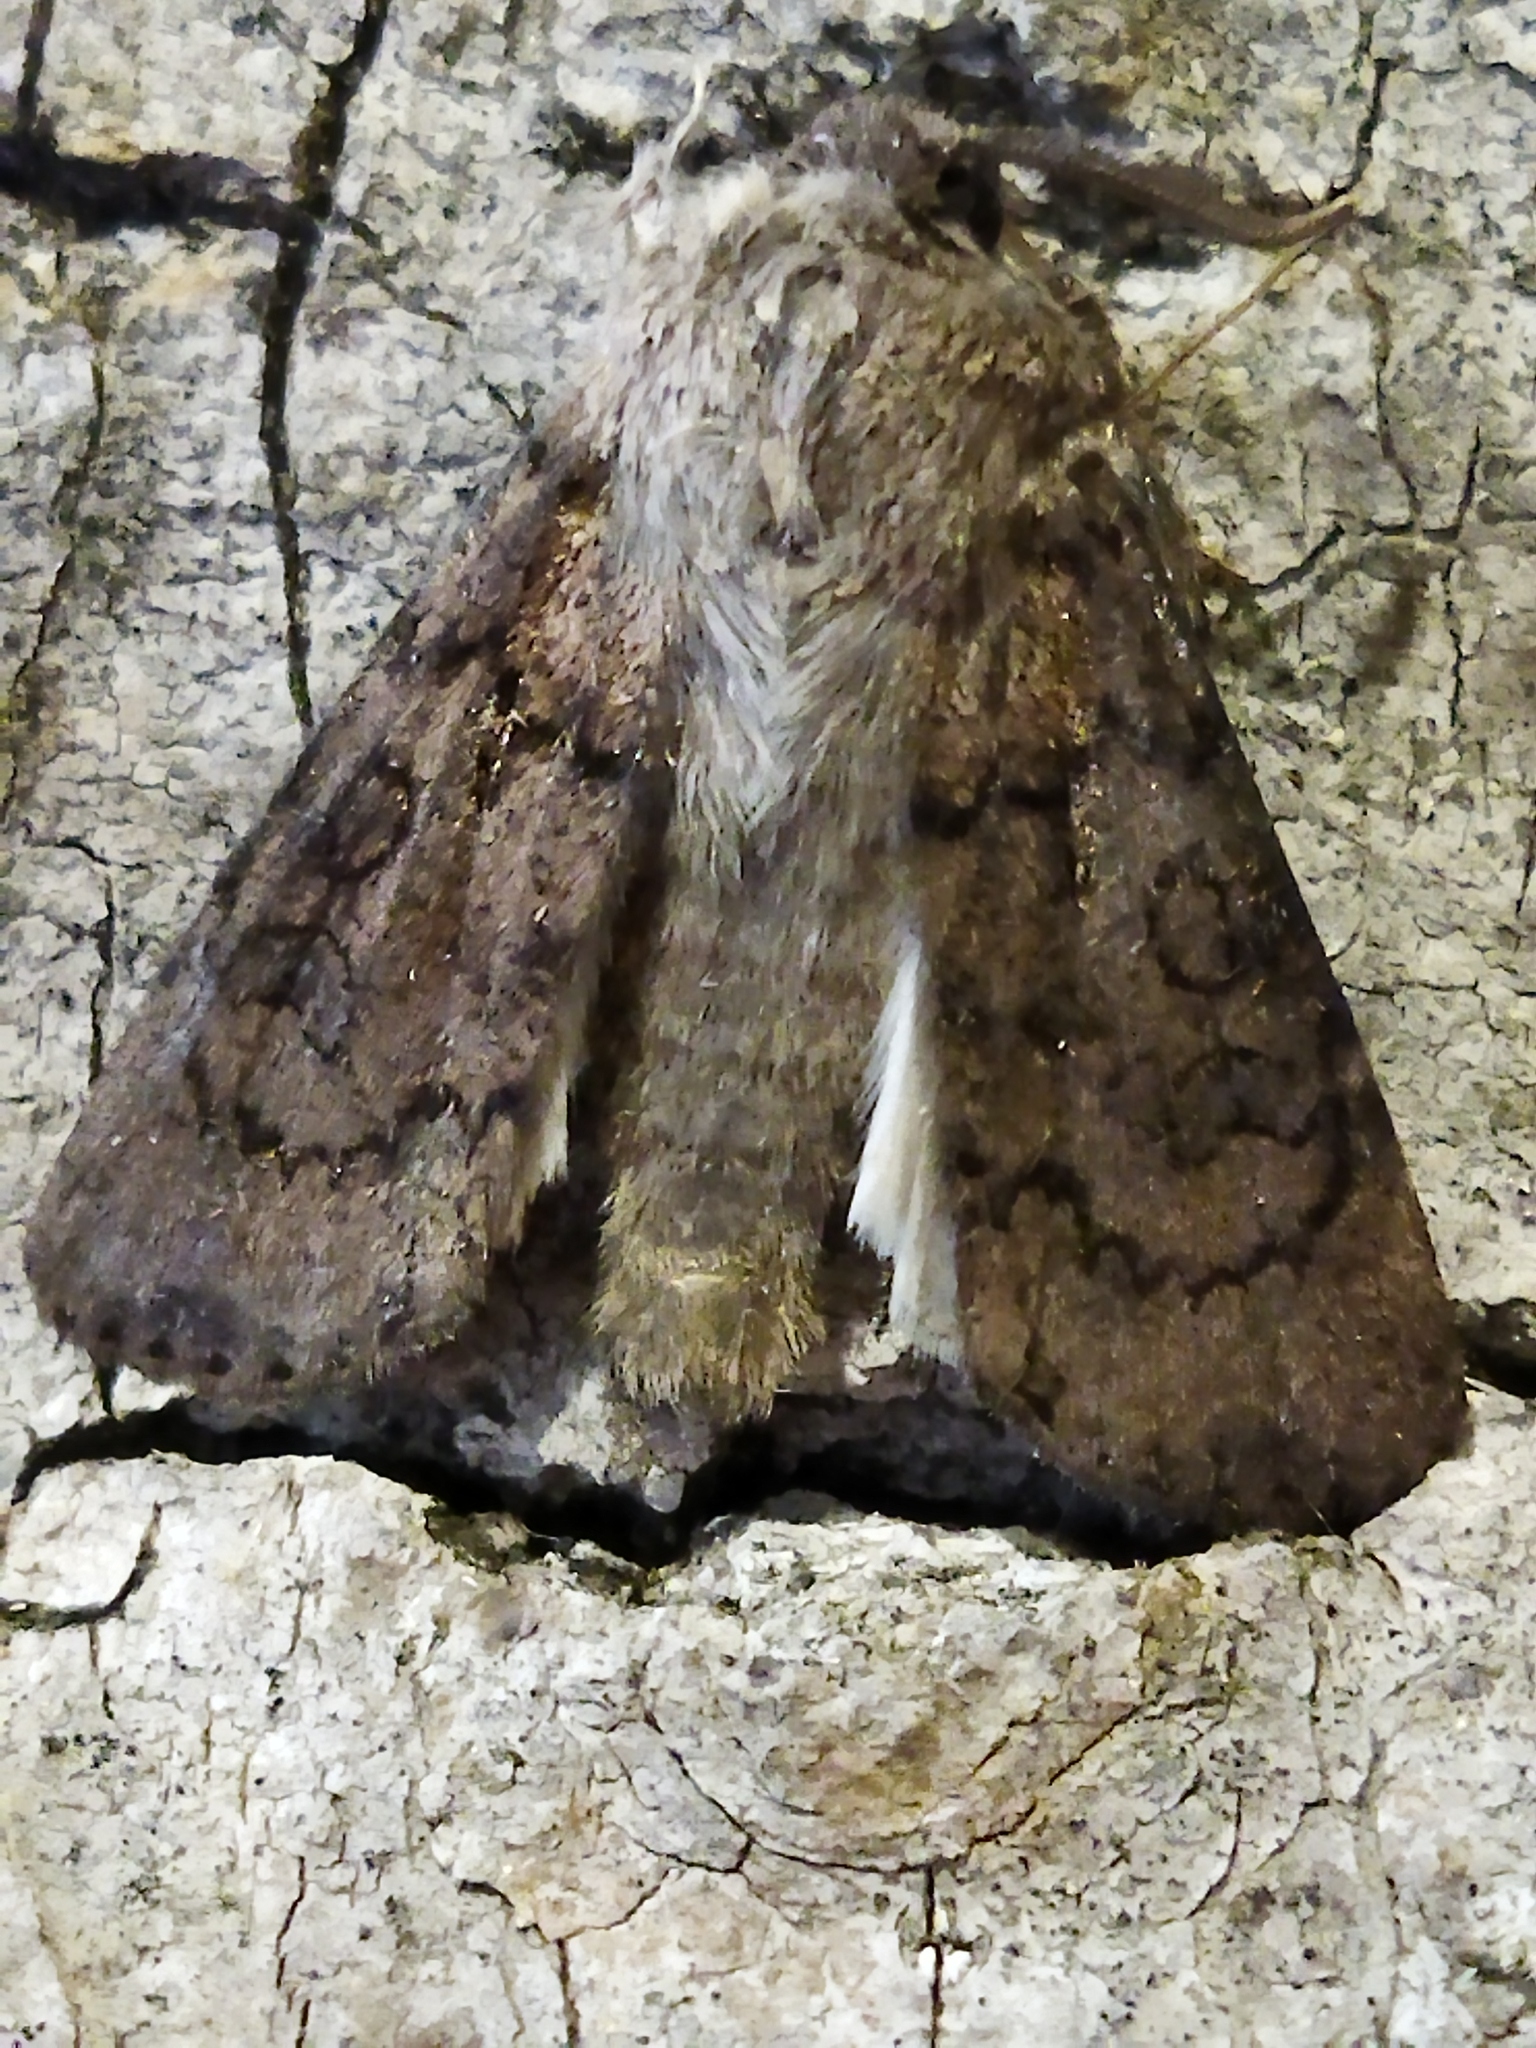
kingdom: Animalia
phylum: Arthropoda
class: Insecta
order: Lepidoptera
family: Noctuidae
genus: Agrotis
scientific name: Agrotis clavis
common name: Heart and club
